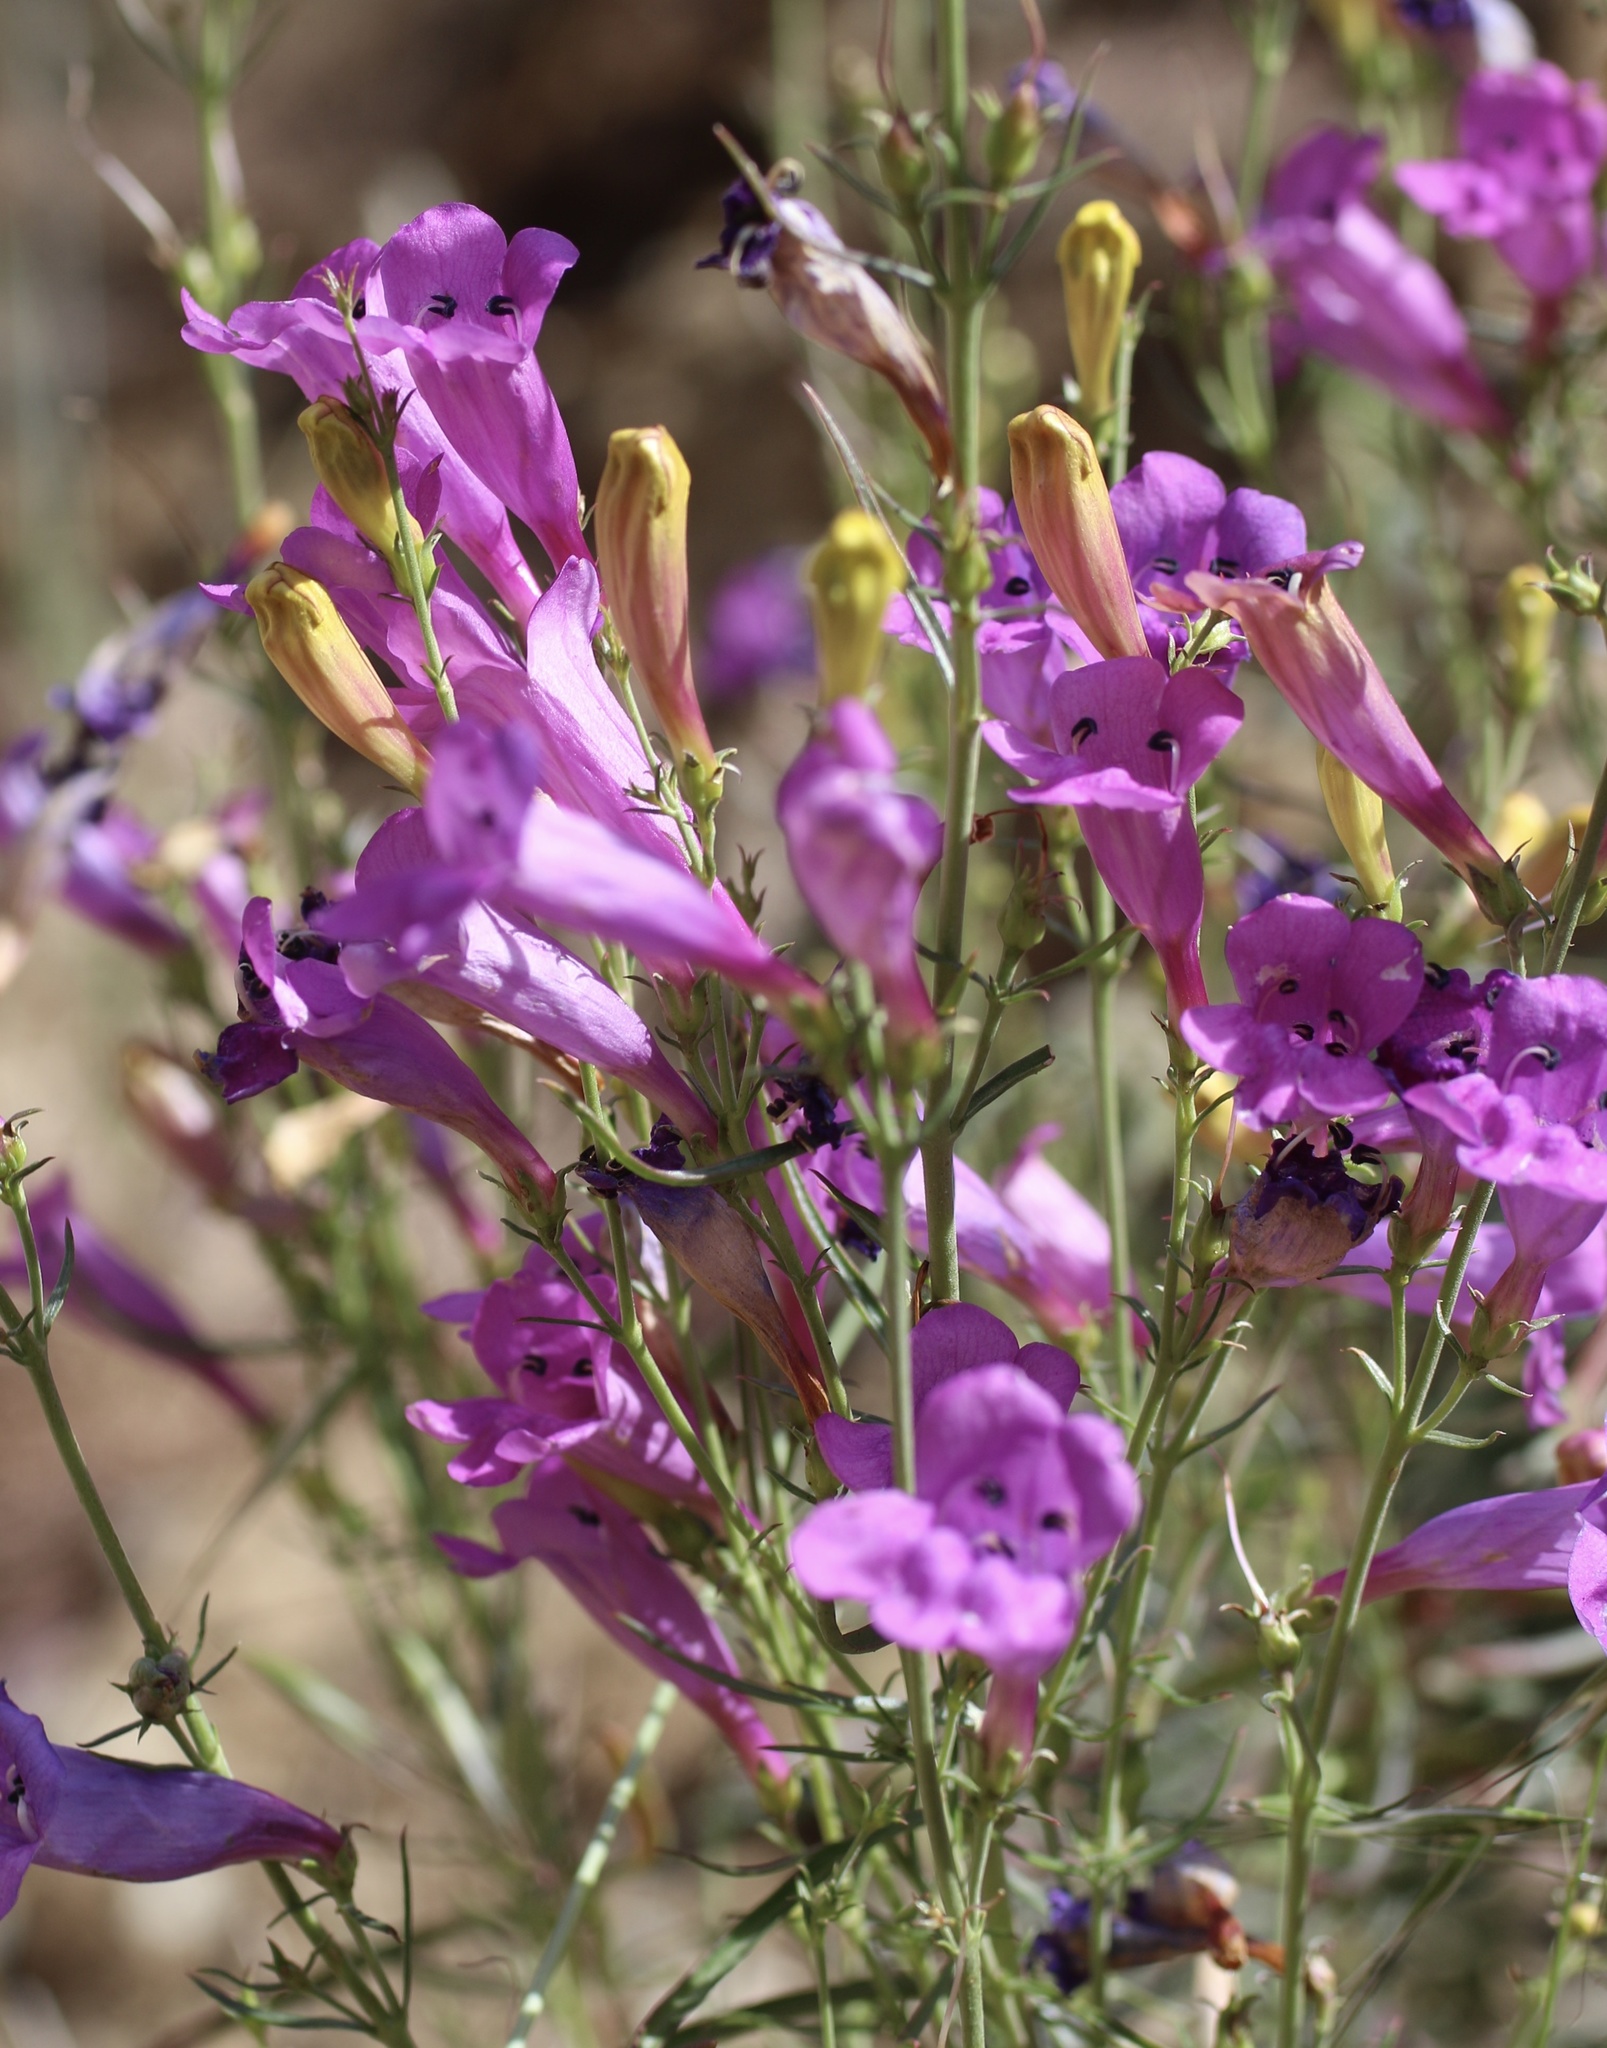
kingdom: Plantae
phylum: Tracheophyta
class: Magnoliopsida
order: Lamiales
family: Plantaginaceae
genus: Penstemon
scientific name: Penstemon heterophyllus
